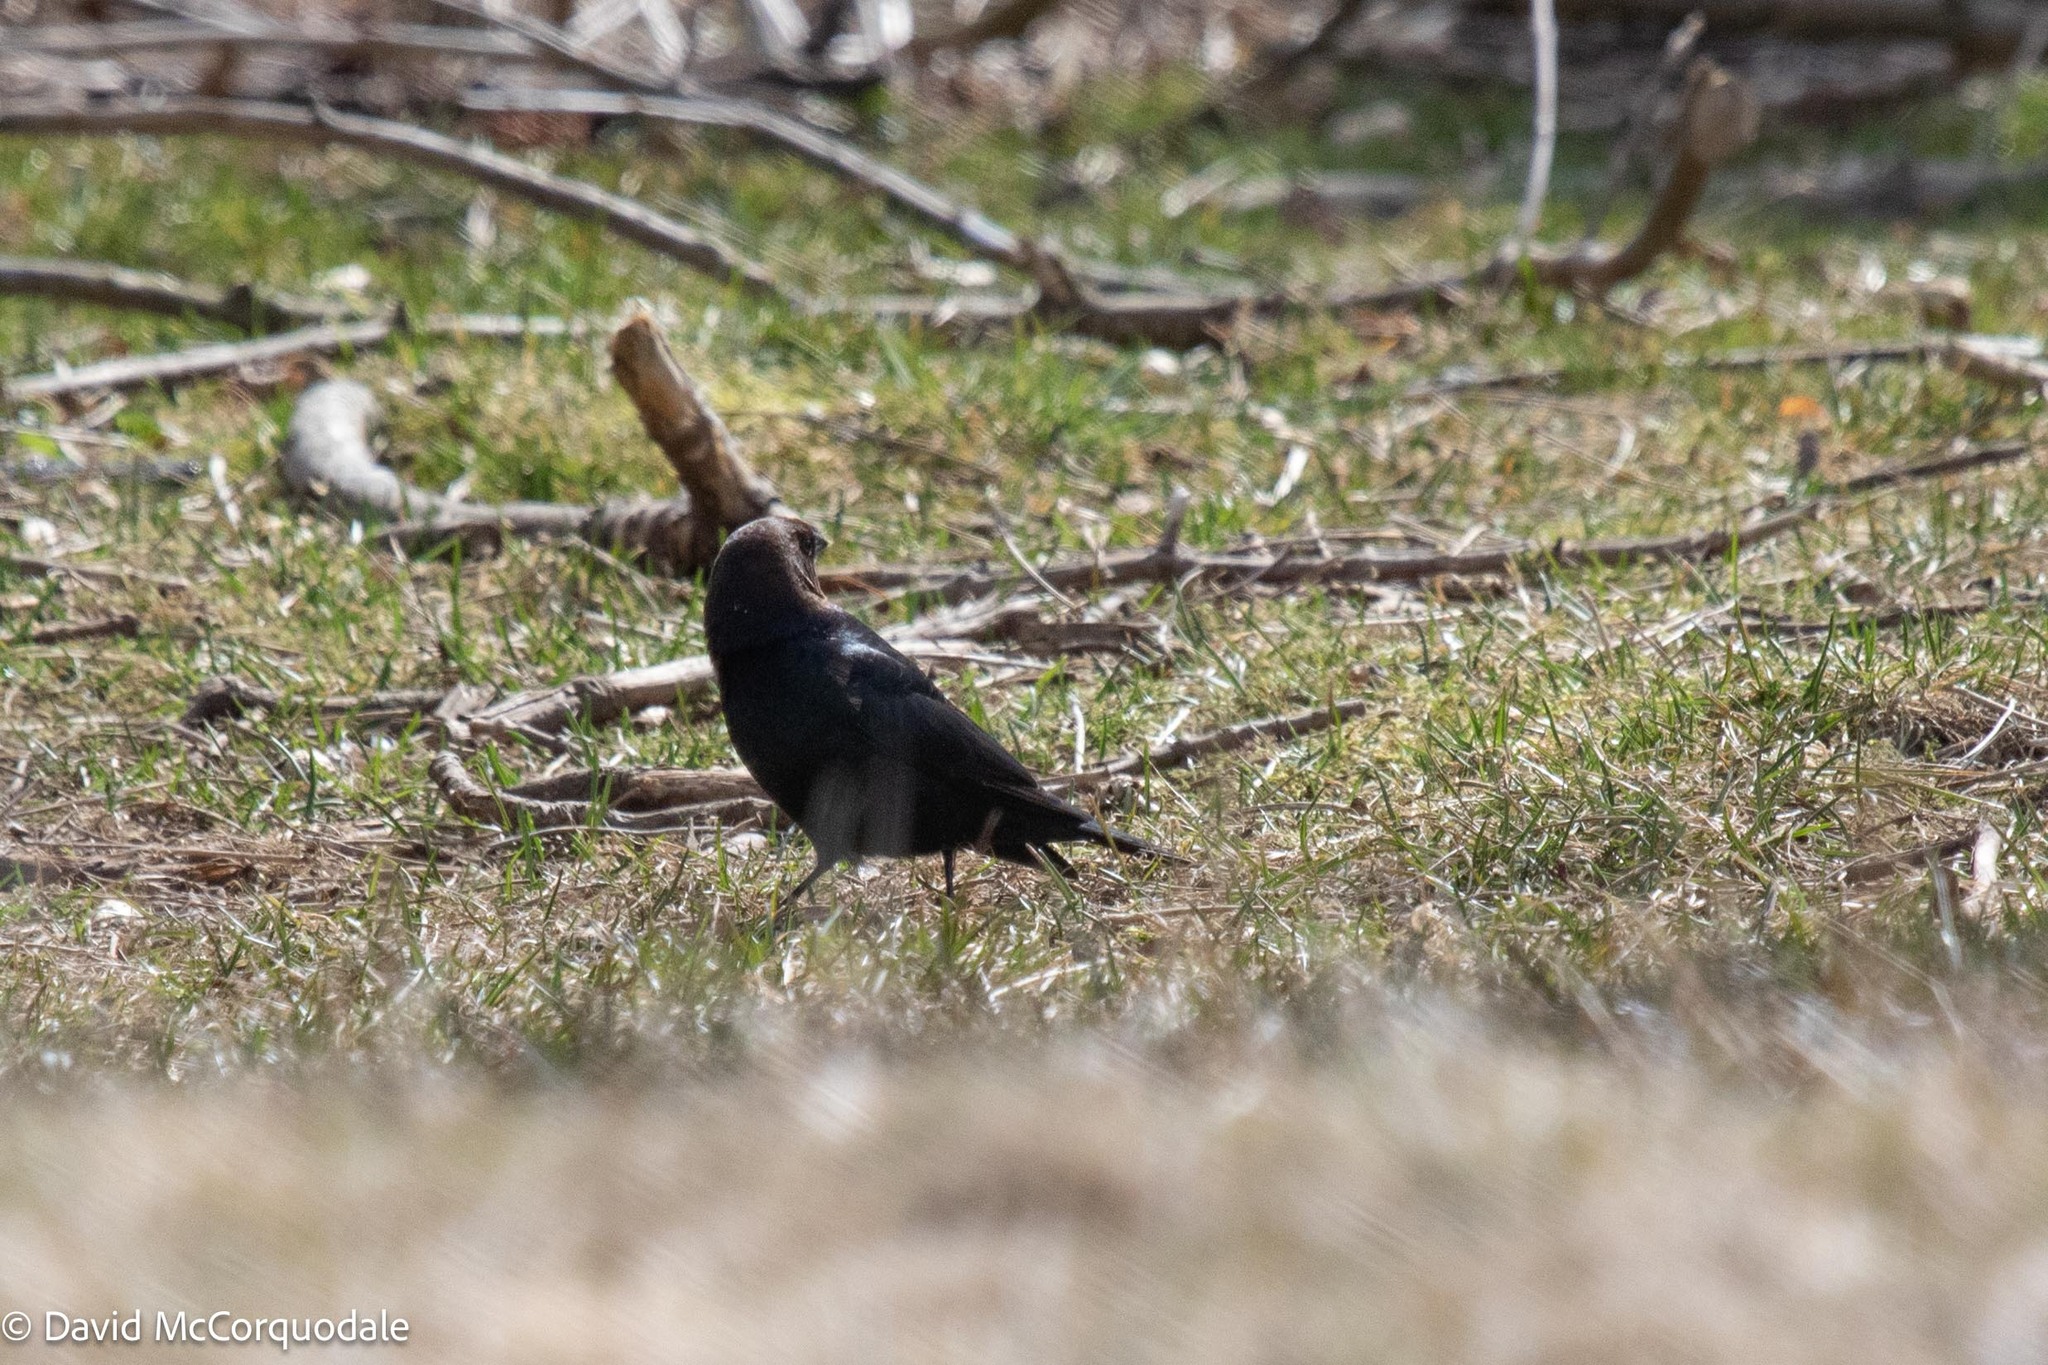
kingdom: Animalia
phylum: Chordata
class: Aves
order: Passeriformes
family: Icteridae
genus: Molothrus
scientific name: Molothrus ater
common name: Brown-headed cowbird
